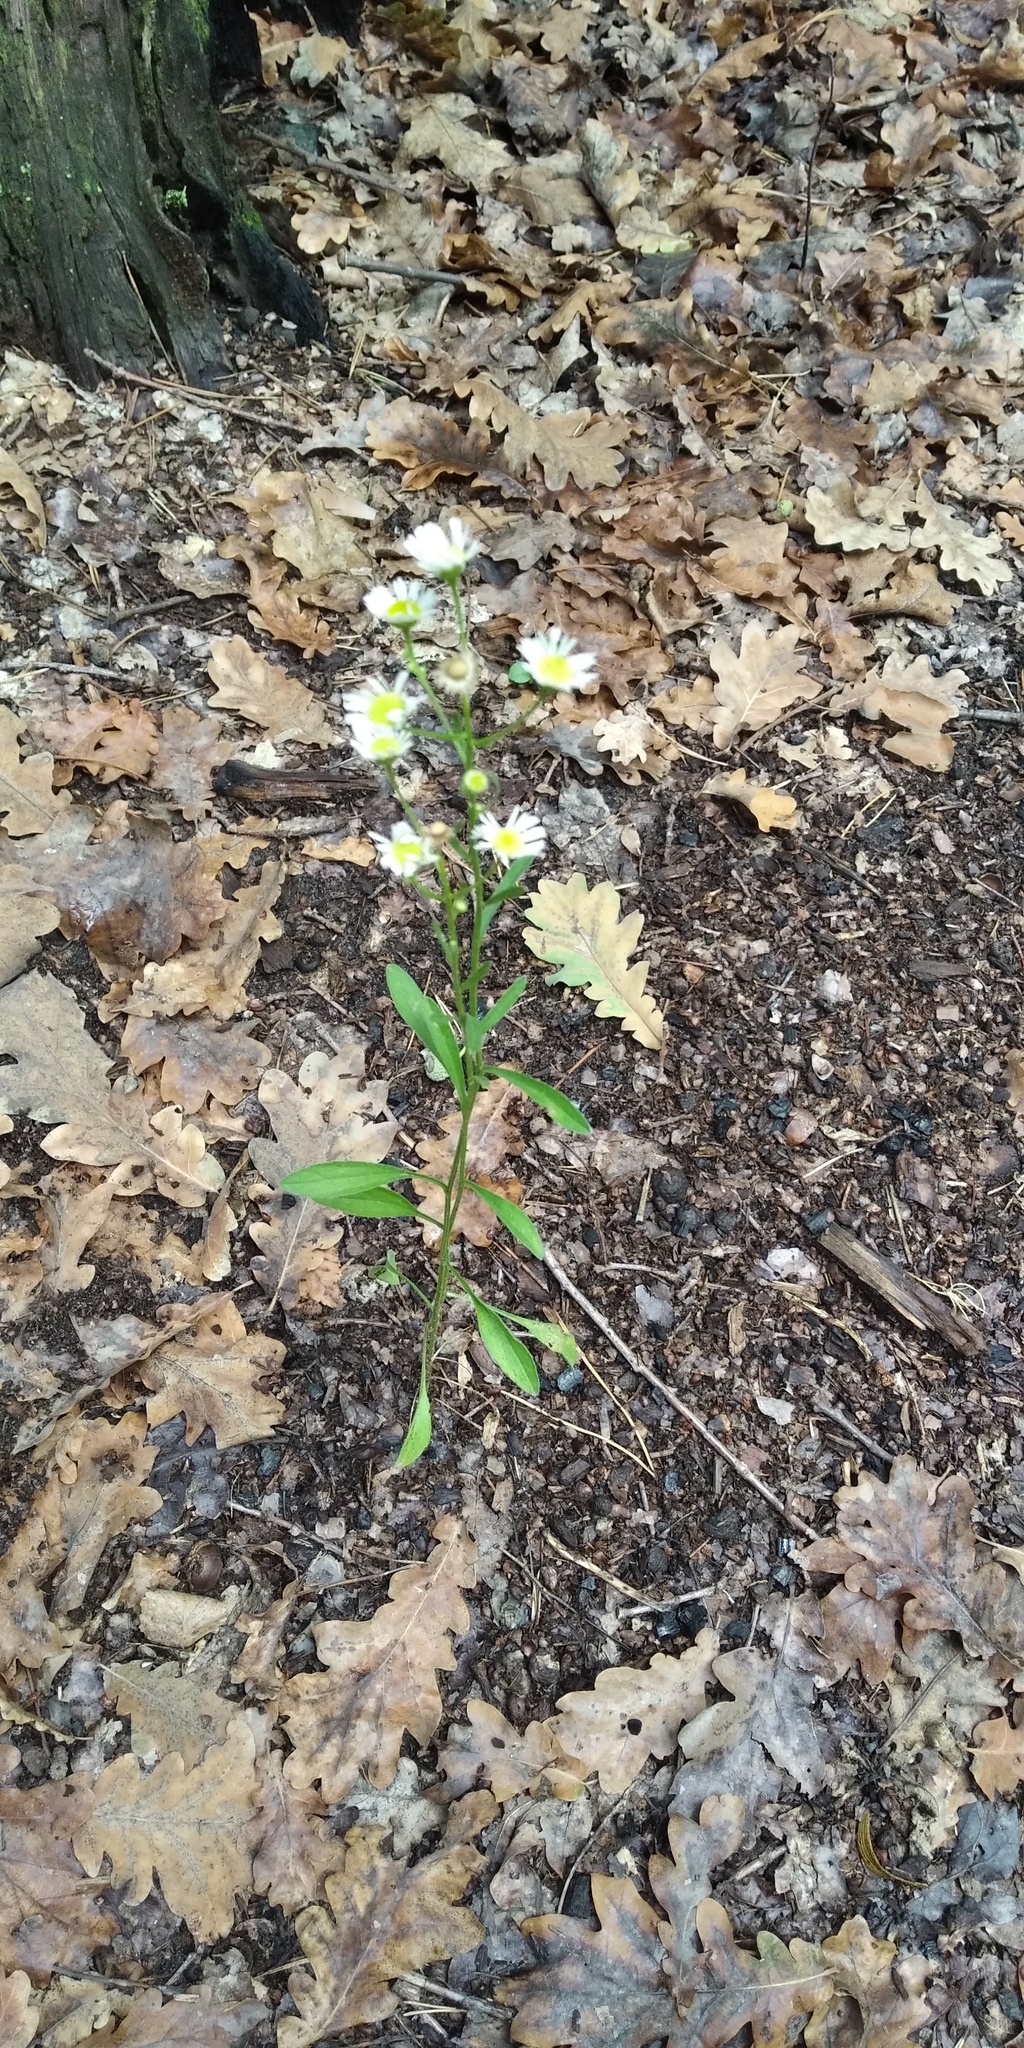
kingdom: Plantae
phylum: Tracheophyta
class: Magnoliopsida
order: Asterales
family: Asteraceae
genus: Erigeron
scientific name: Erigeron annuus
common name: Tall fleabane
